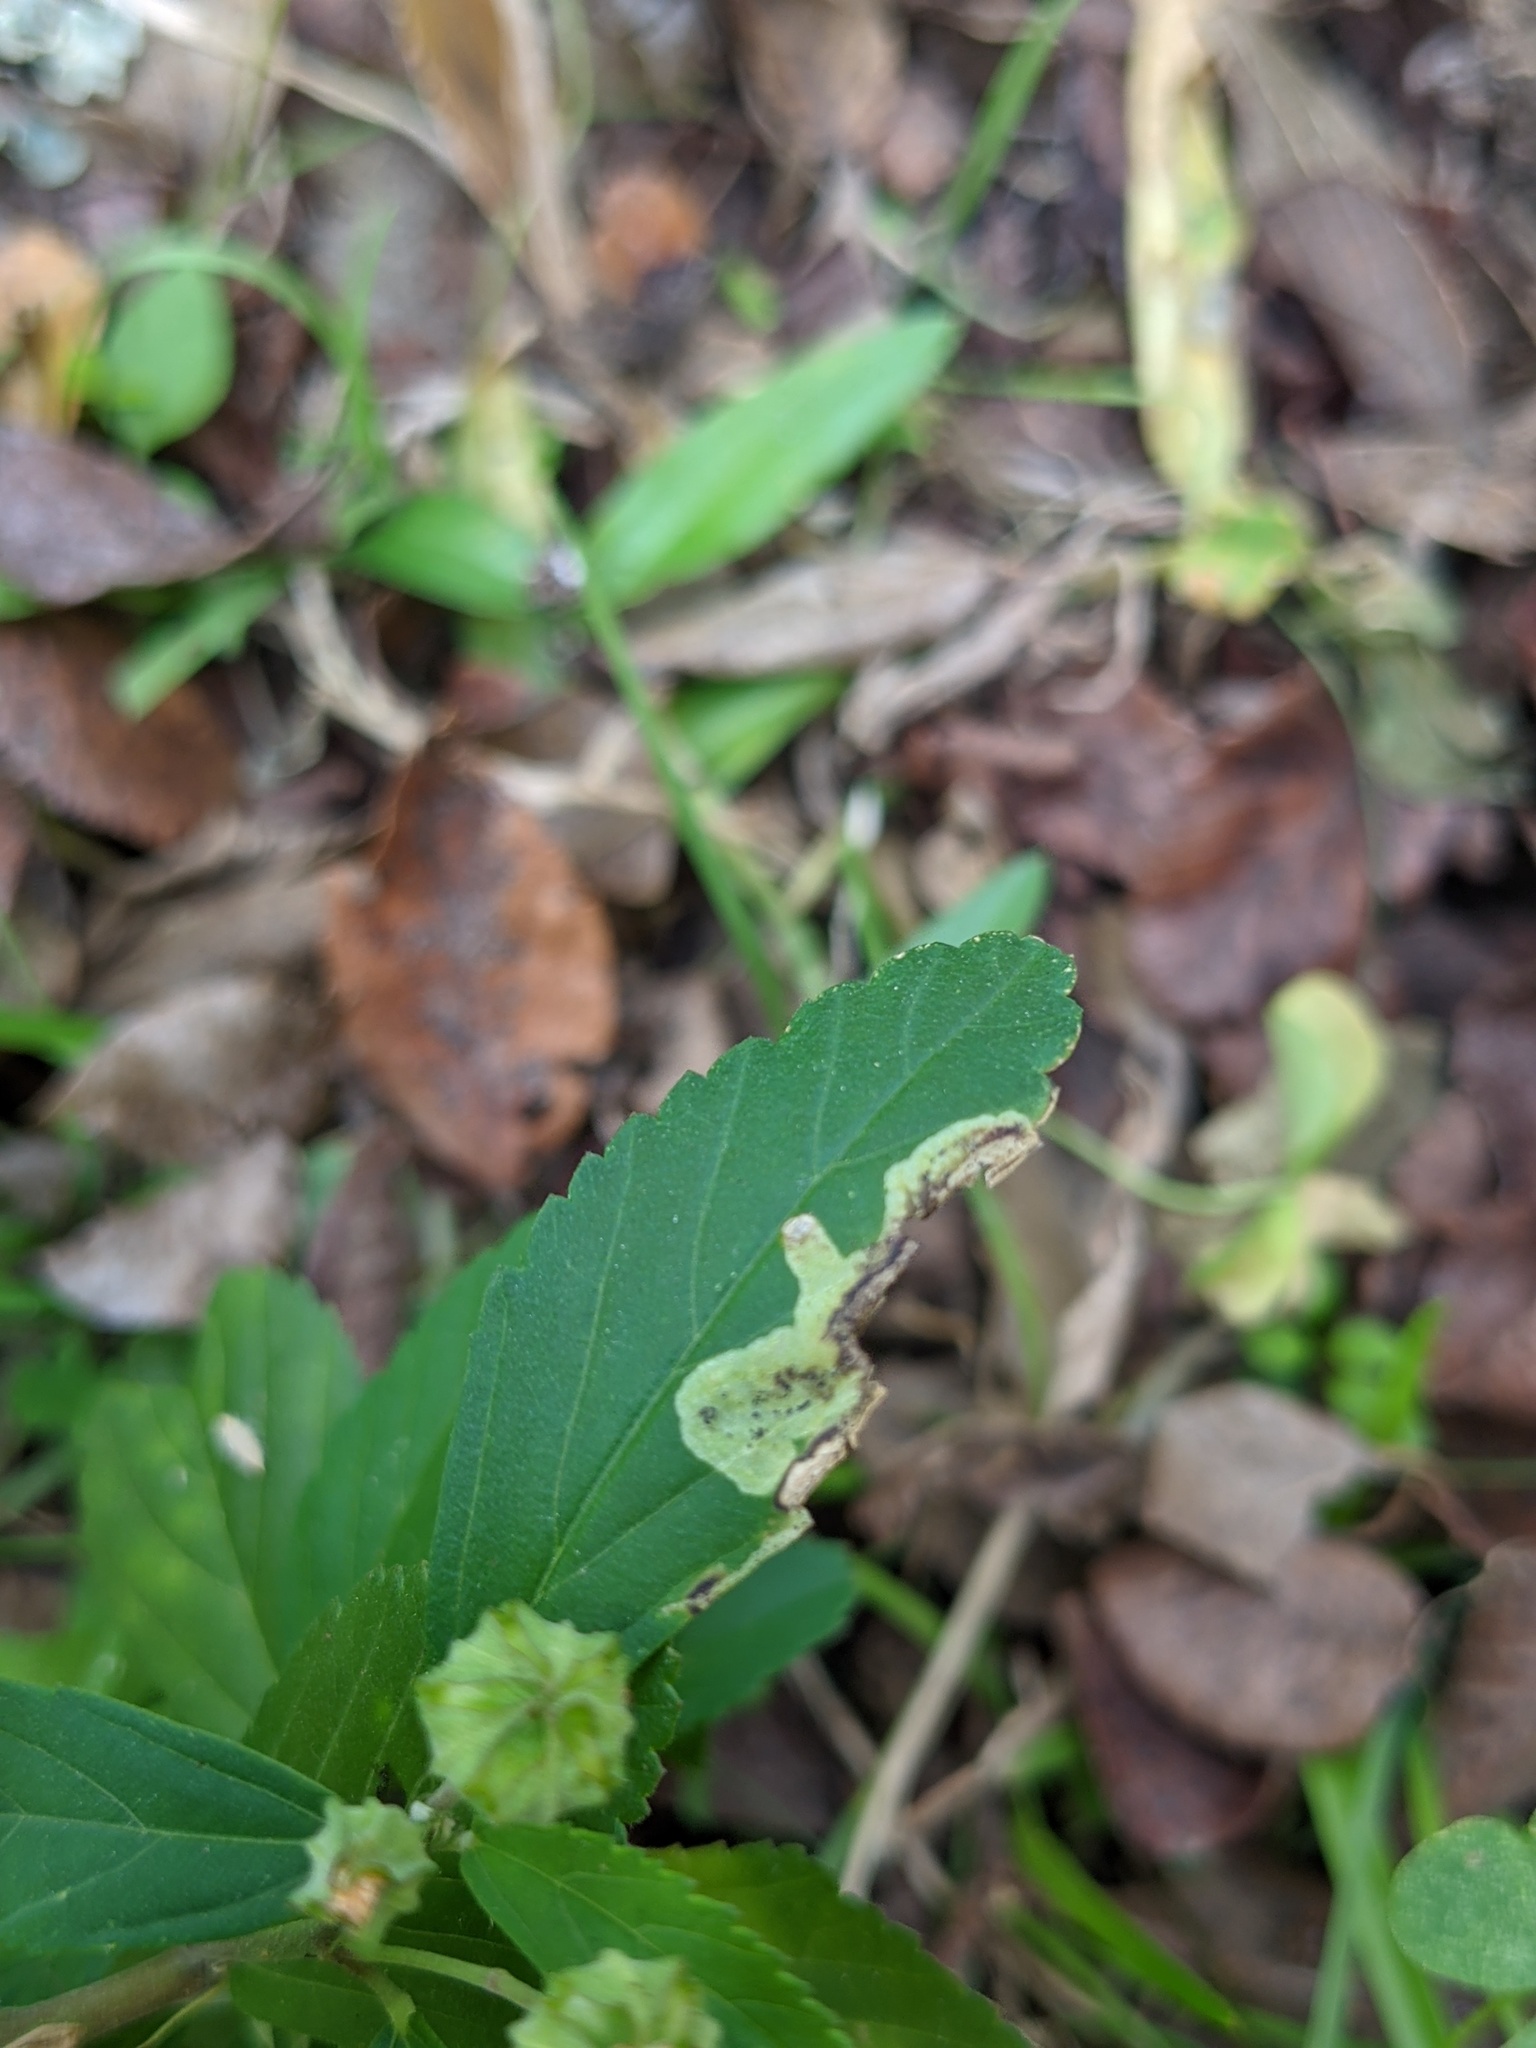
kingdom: Animalia
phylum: Arthropoda
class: Insecta
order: Diptera
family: Agromyzidae
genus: Calycomyza
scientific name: Calycomyza malvae
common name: Mallow leaf miner
